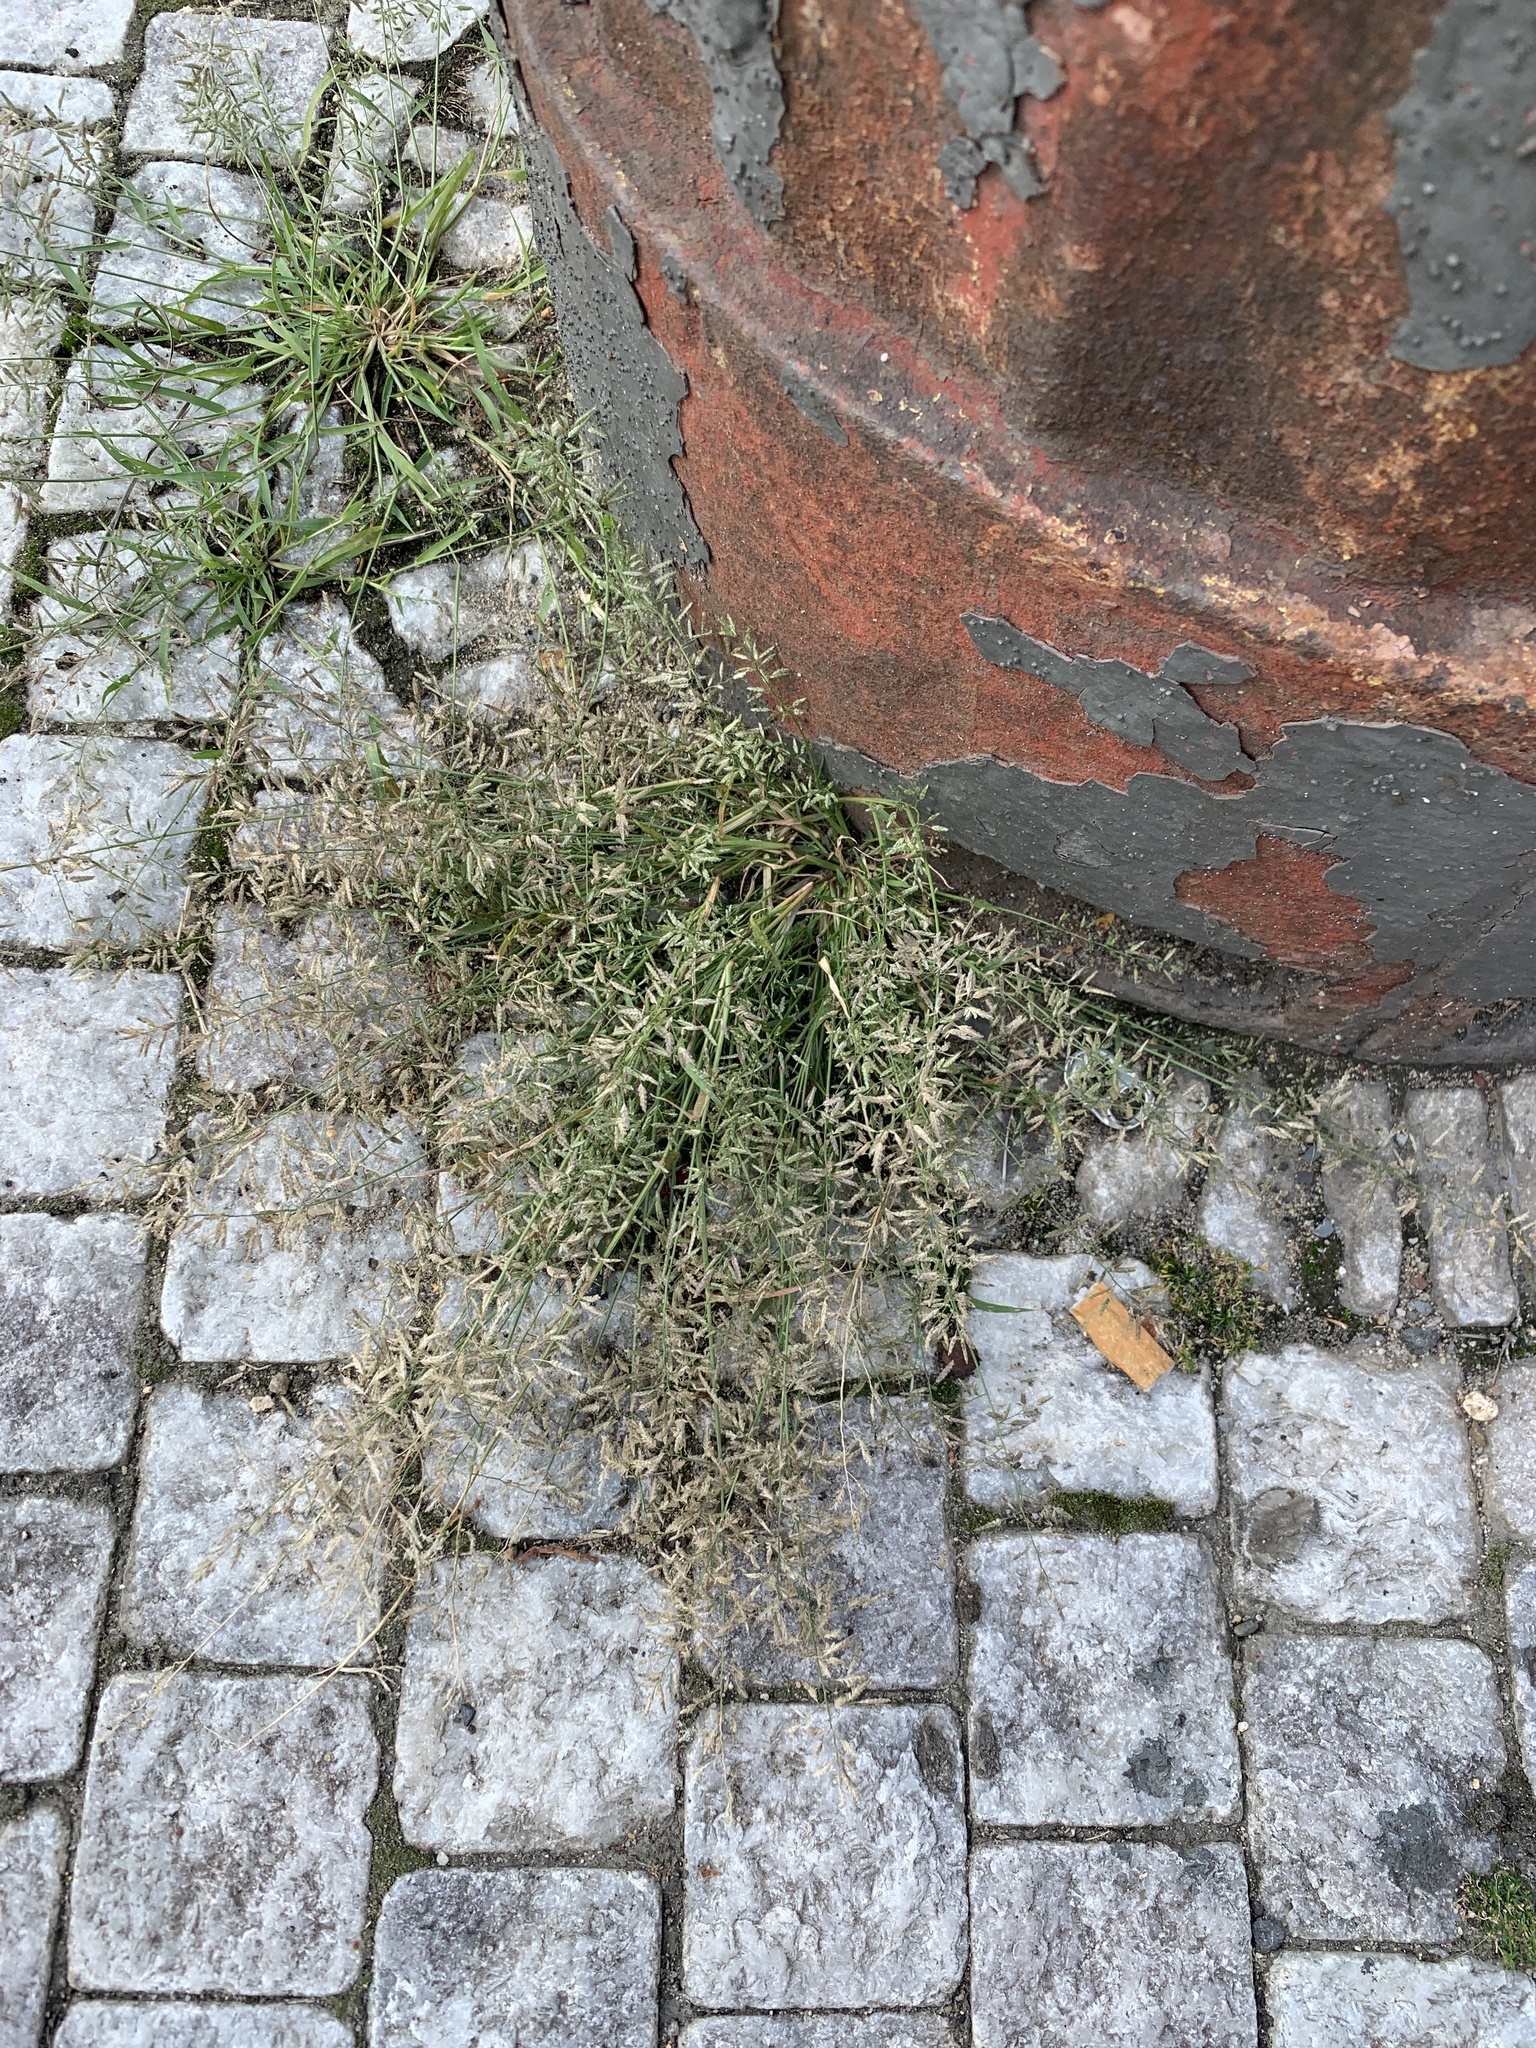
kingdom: Plantae
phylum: Tracheophyta
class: Liliopsida
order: Poales
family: Poaceae
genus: Eragrostis
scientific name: Eragrostis minor
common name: Small love-grass
